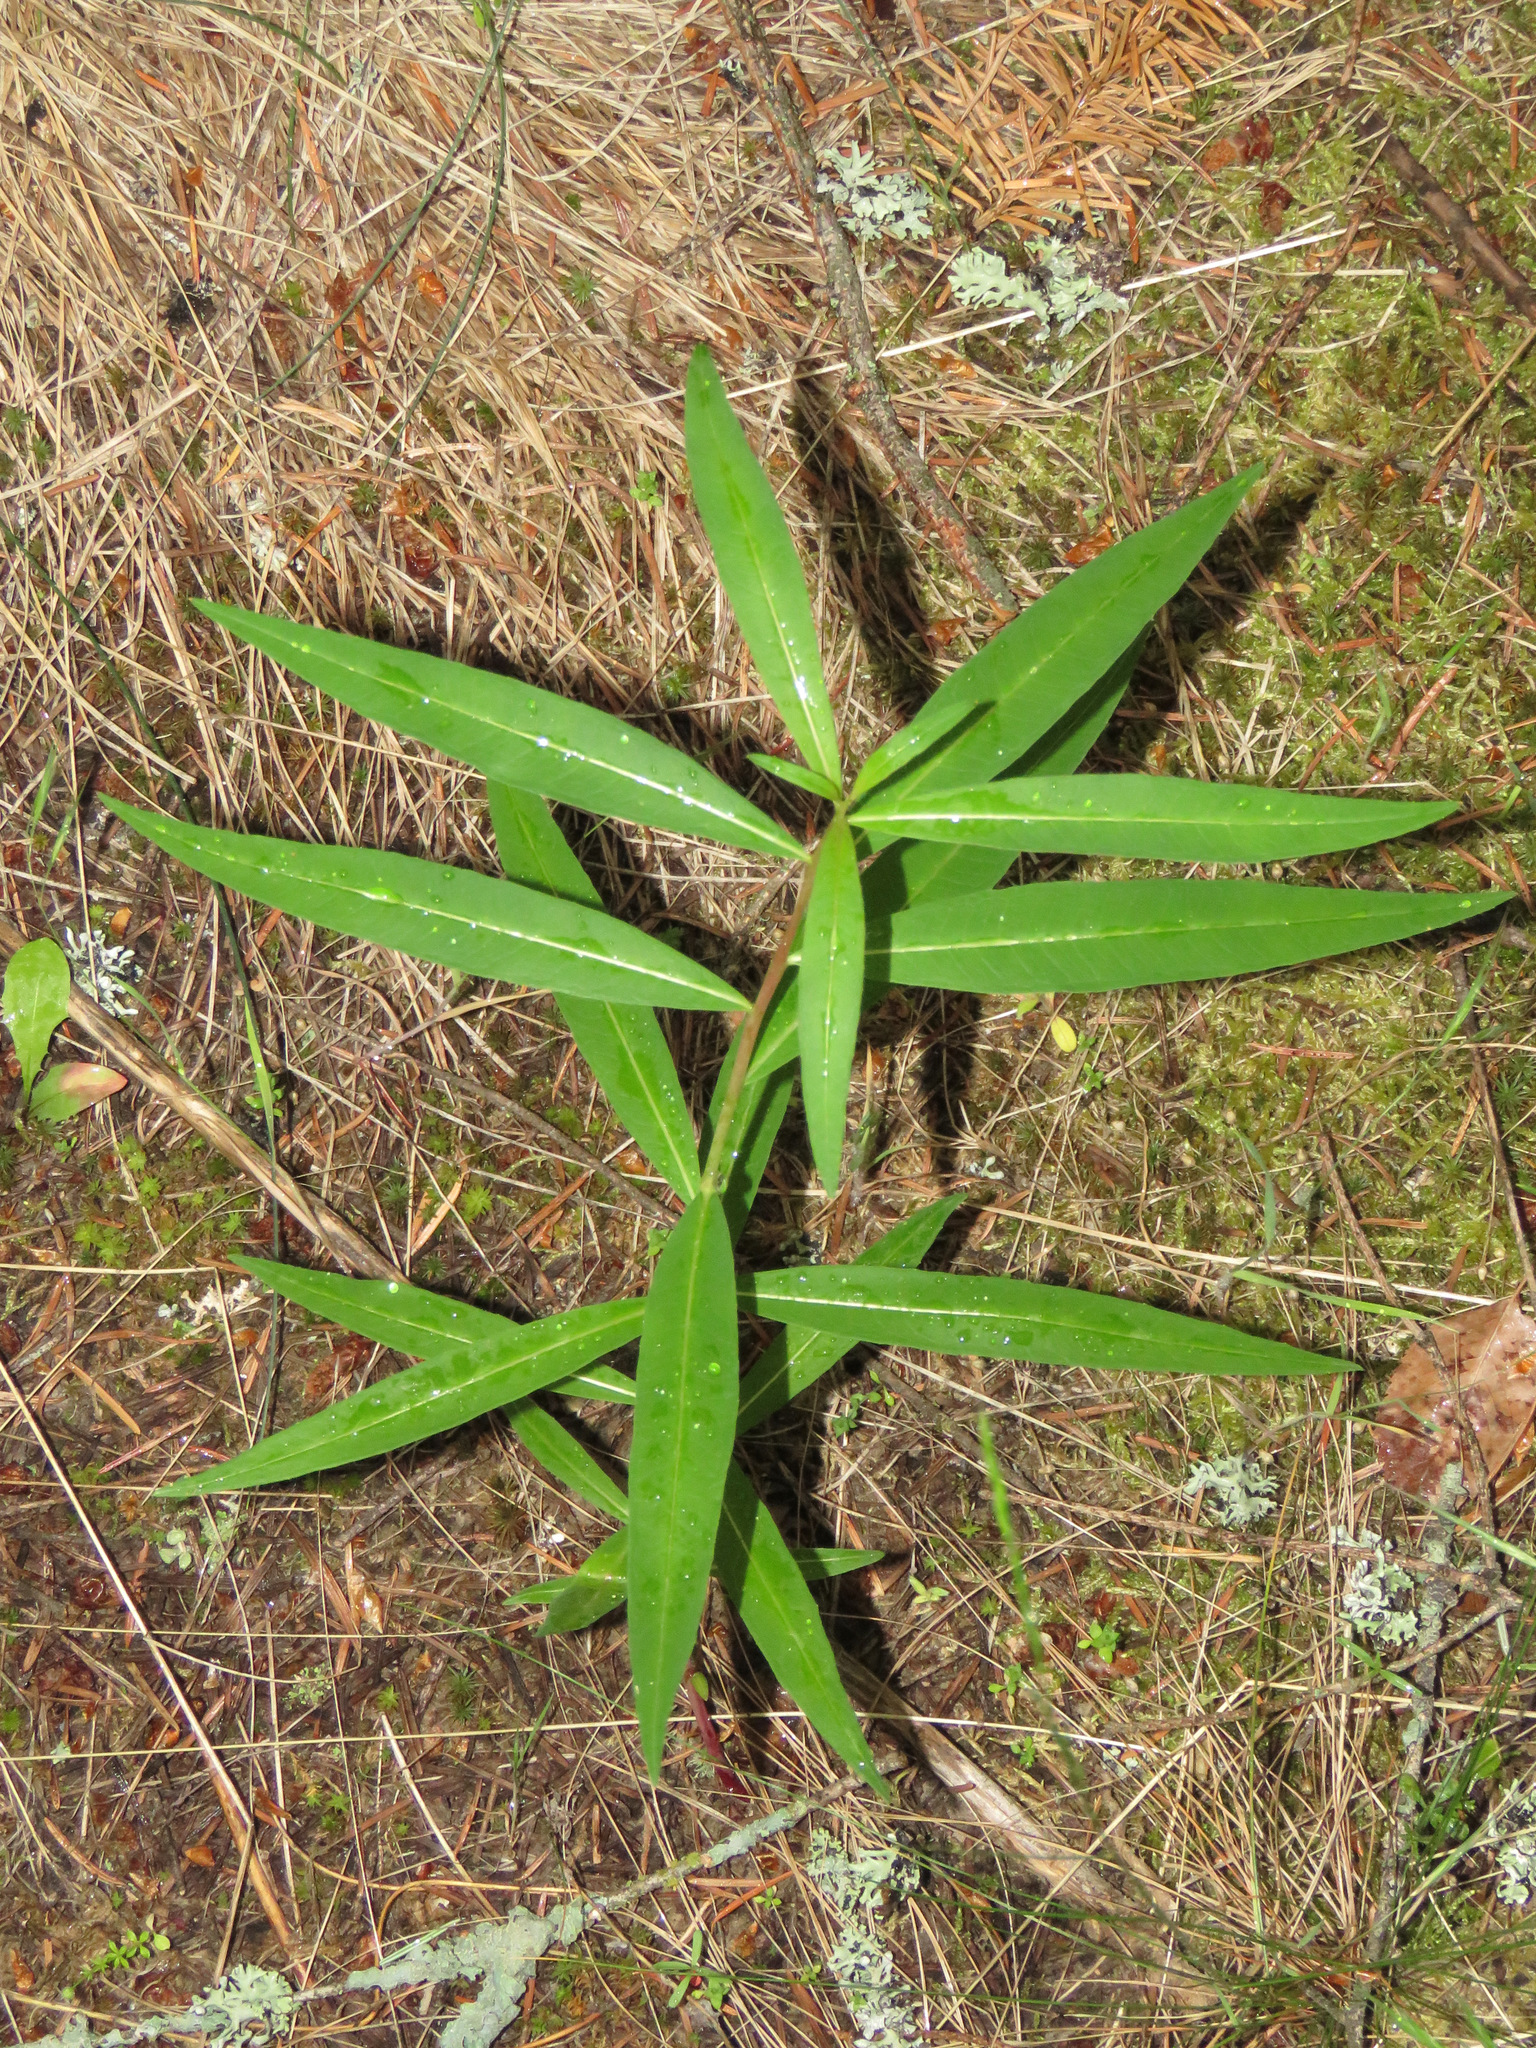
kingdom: Plantae
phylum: Tracheophyta
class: Magnoliopsida
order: Myrtales
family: Onagraceae
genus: Chamaenerion
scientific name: Chamaenerion angustifolium
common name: Fireweed
